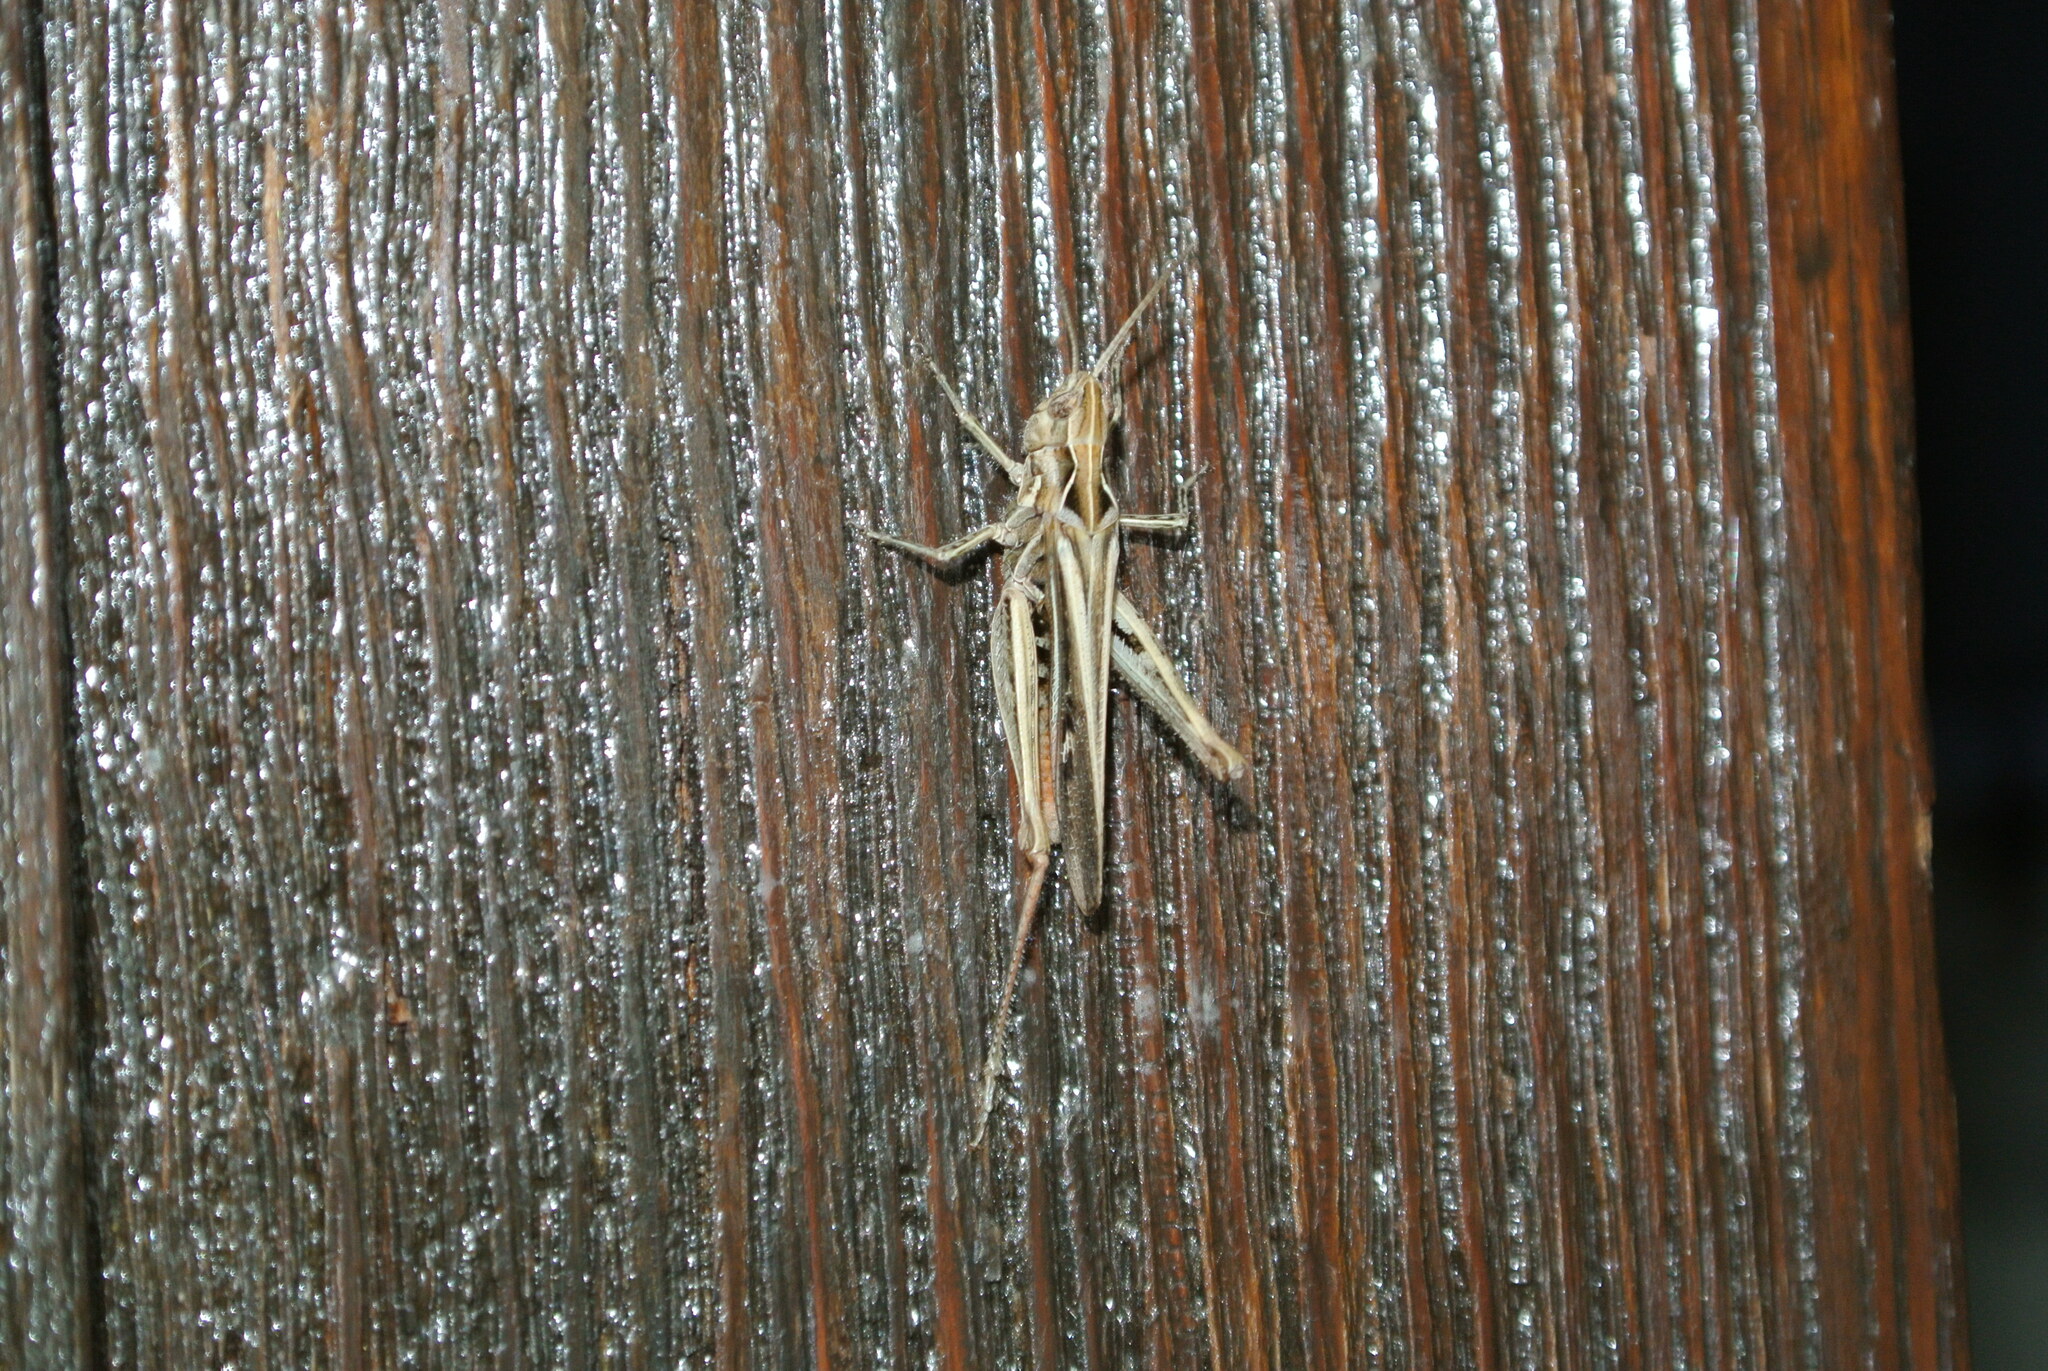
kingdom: Animalia
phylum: Arthropoda
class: Insecta
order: Orthoptera
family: Acrididae
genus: Chorthippus
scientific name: Chorthippus brunneus
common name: Field grasshopper
